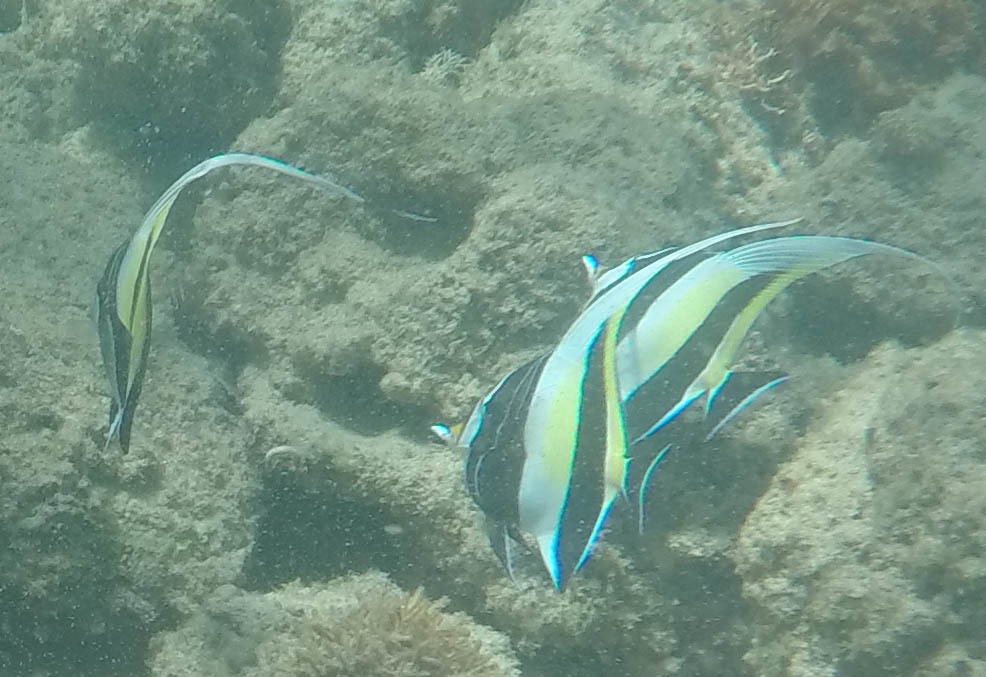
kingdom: Animalia
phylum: Chordata
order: Perciformes
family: Zanclidae
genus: Zanclus
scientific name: Zanclus cornutus
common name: Moorish idol
